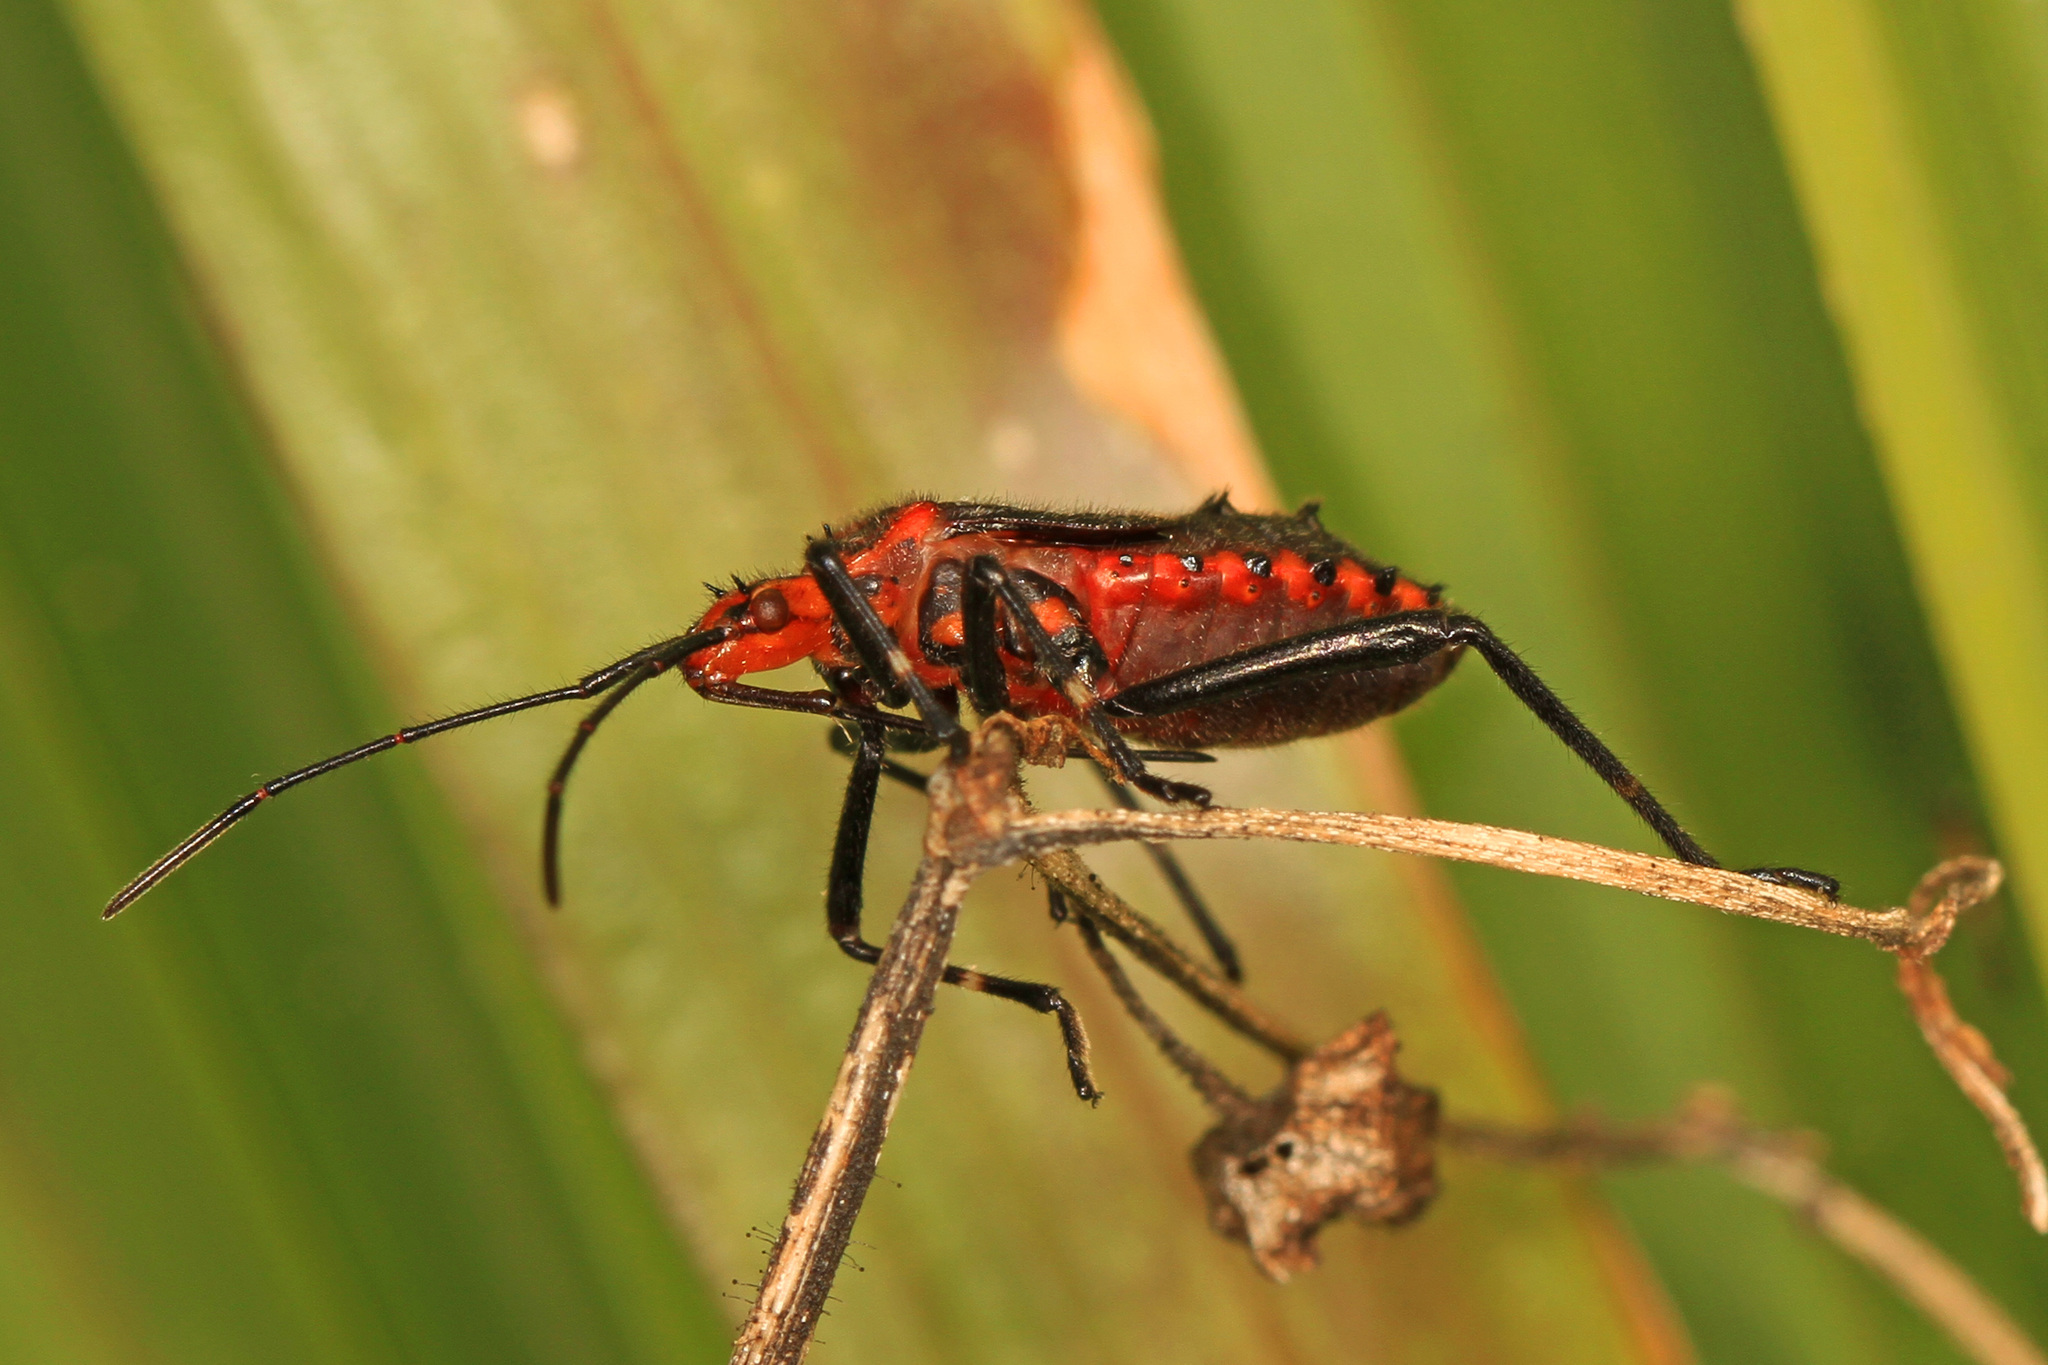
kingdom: Animalia
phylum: Arthropoda
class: Insecta
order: Hemiptera
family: Coreidae
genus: Phthiacnemia
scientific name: Phthiacnemia picta
